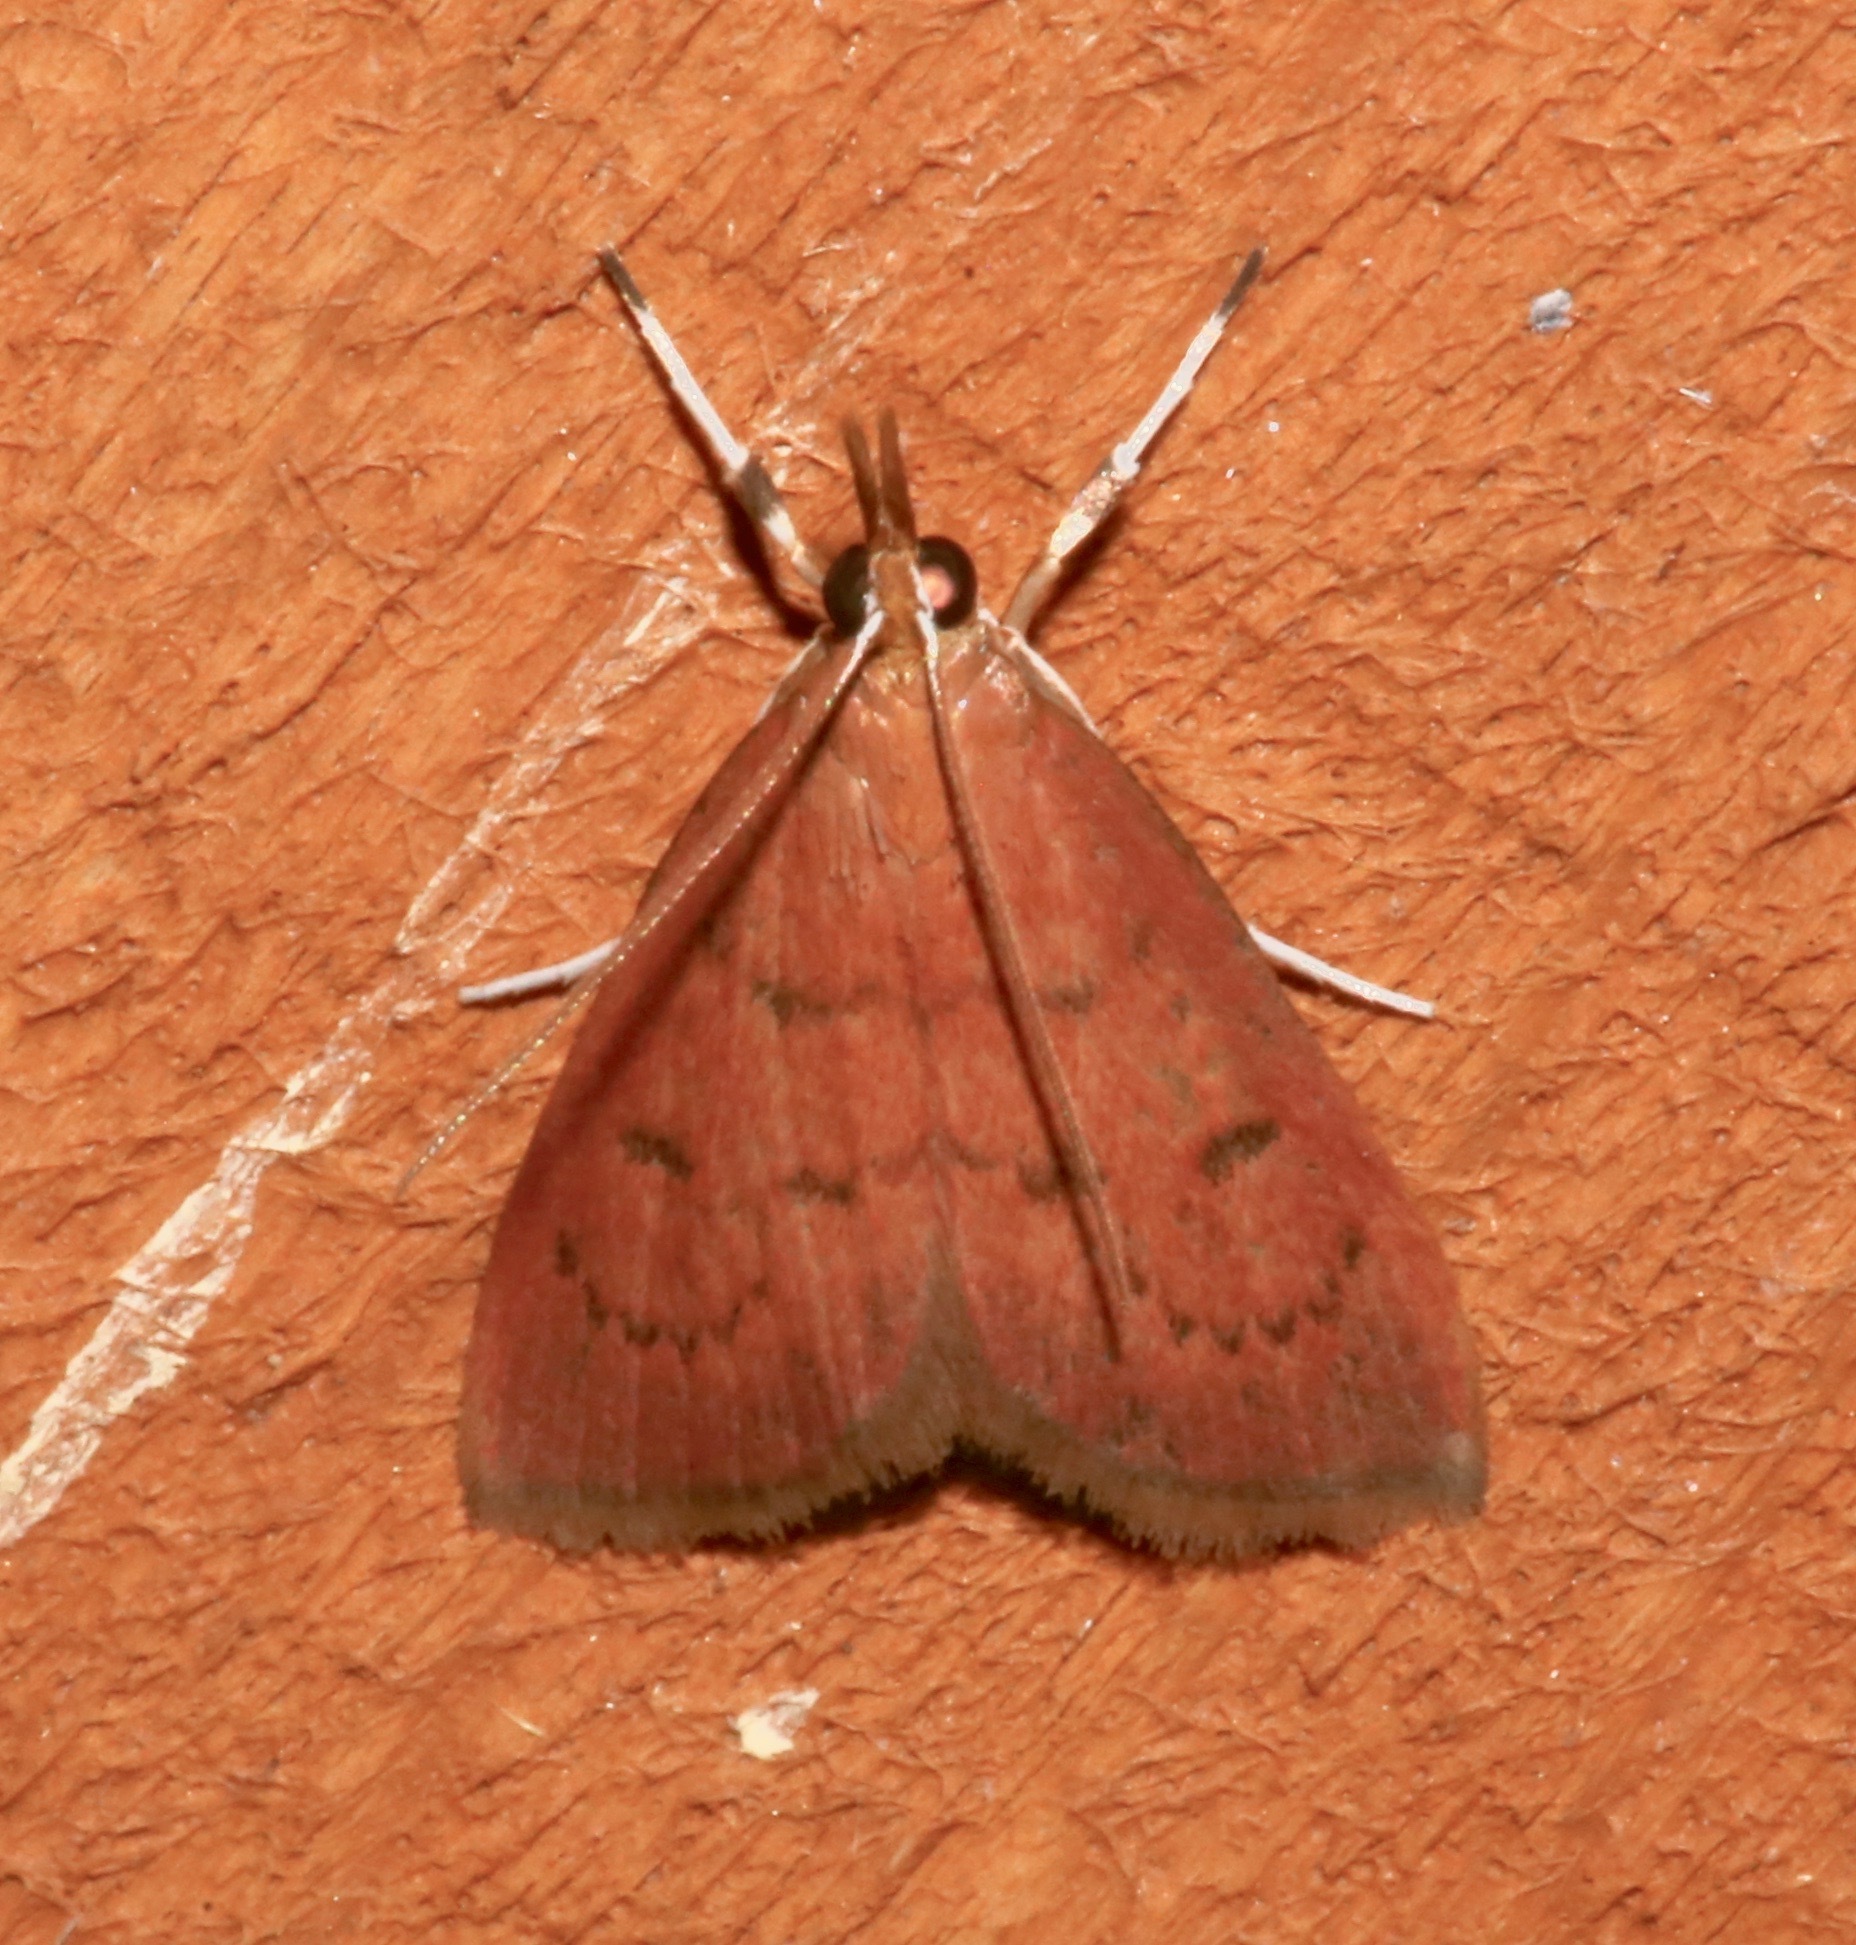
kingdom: Animalia
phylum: Arthropoda
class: Insecta
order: Lepidoptera
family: Crambidae
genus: Oenobotys
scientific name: Oenobotys vinotinctalis
